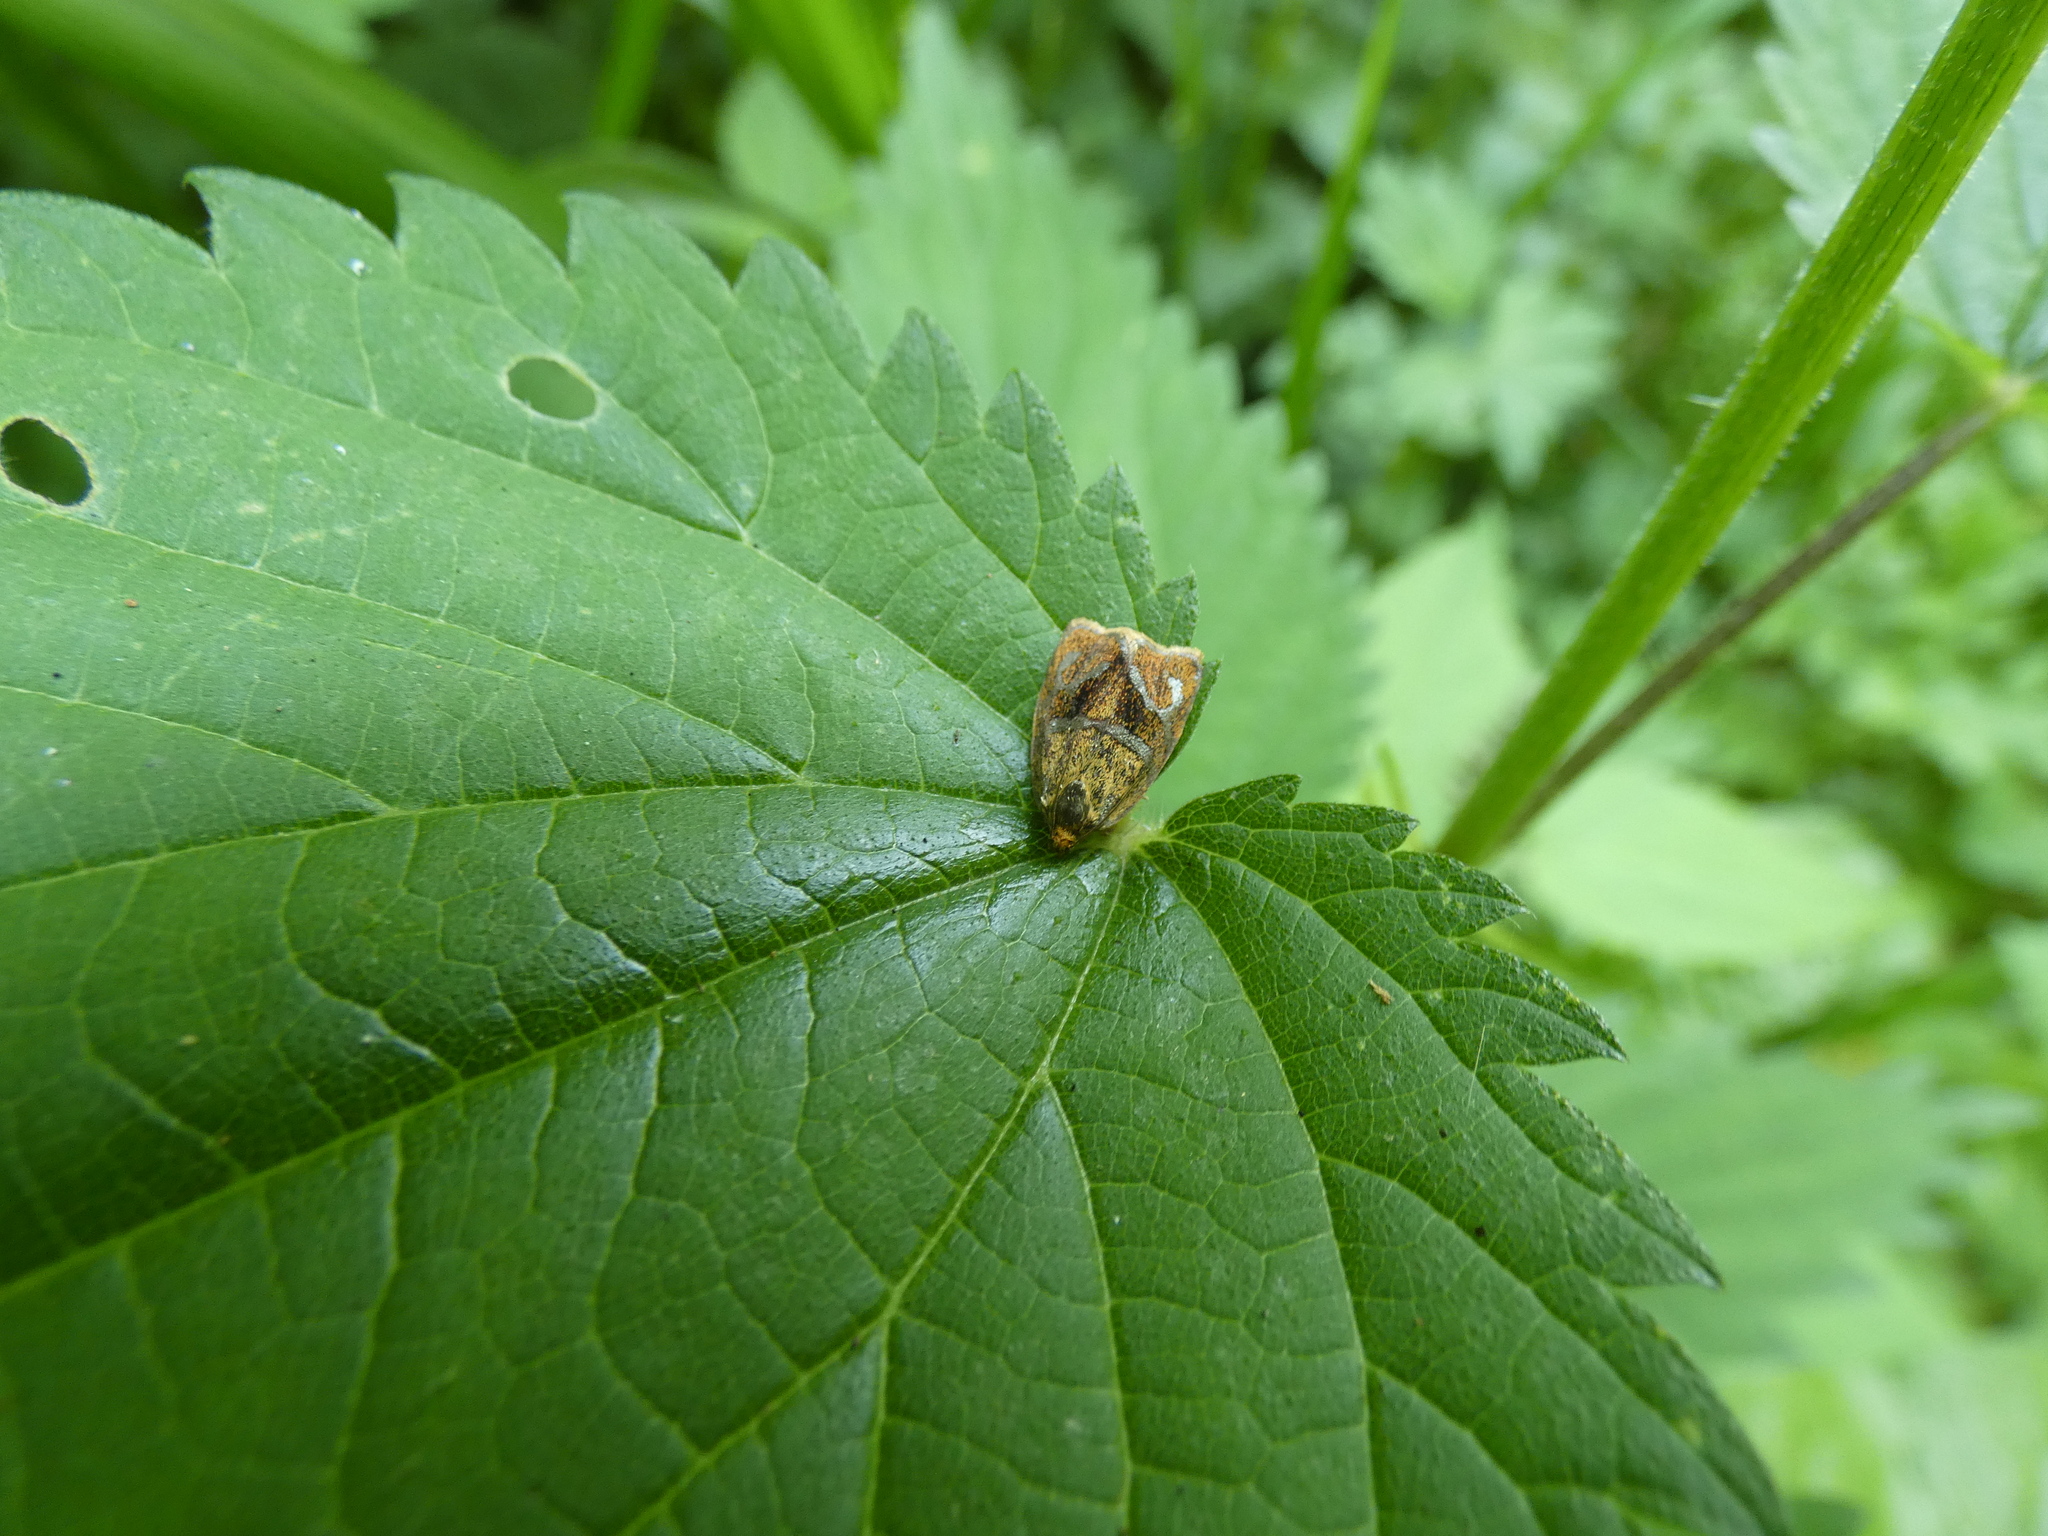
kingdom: Animalia
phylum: Arthropoda
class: Insecta
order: Lepidoptera
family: Tortricidae
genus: Ptycholoma
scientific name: Ptycholoma lecheana
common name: Leches twist moth
